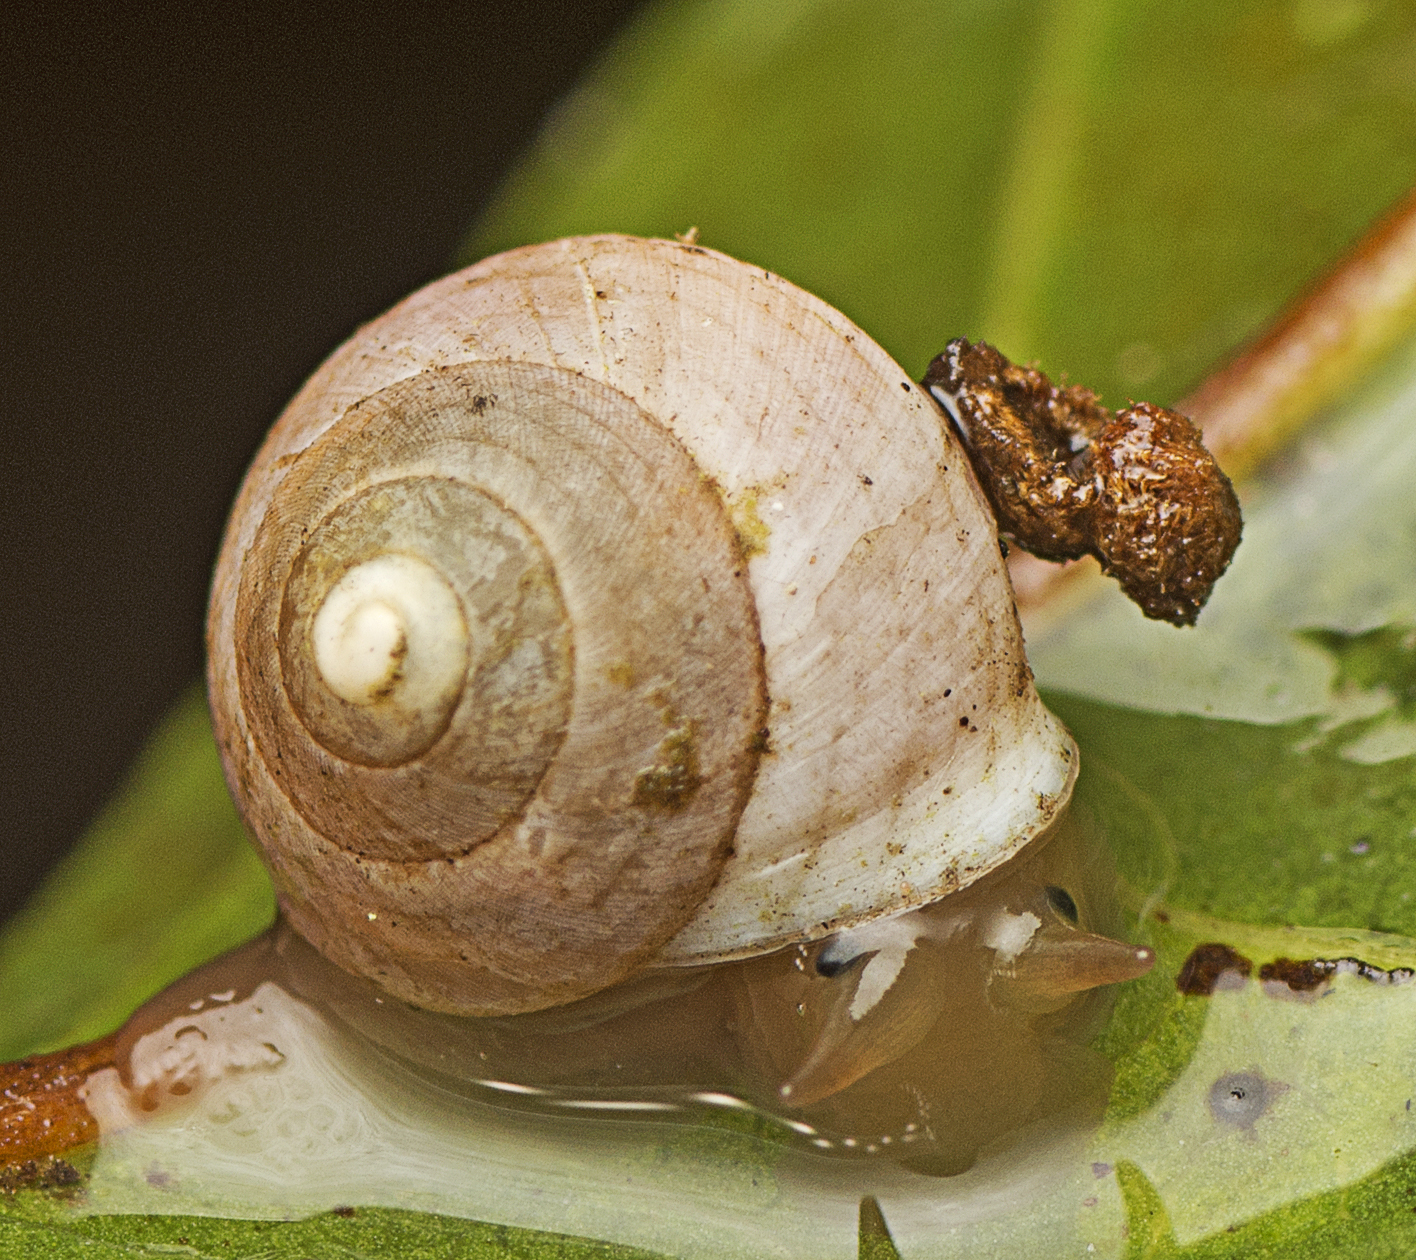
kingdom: Animalia
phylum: Mollusca
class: Gastropoda
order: Cycloneritida
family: Helicinidae
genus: Pleuropoma
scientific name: Pleuropoma draytonensis
